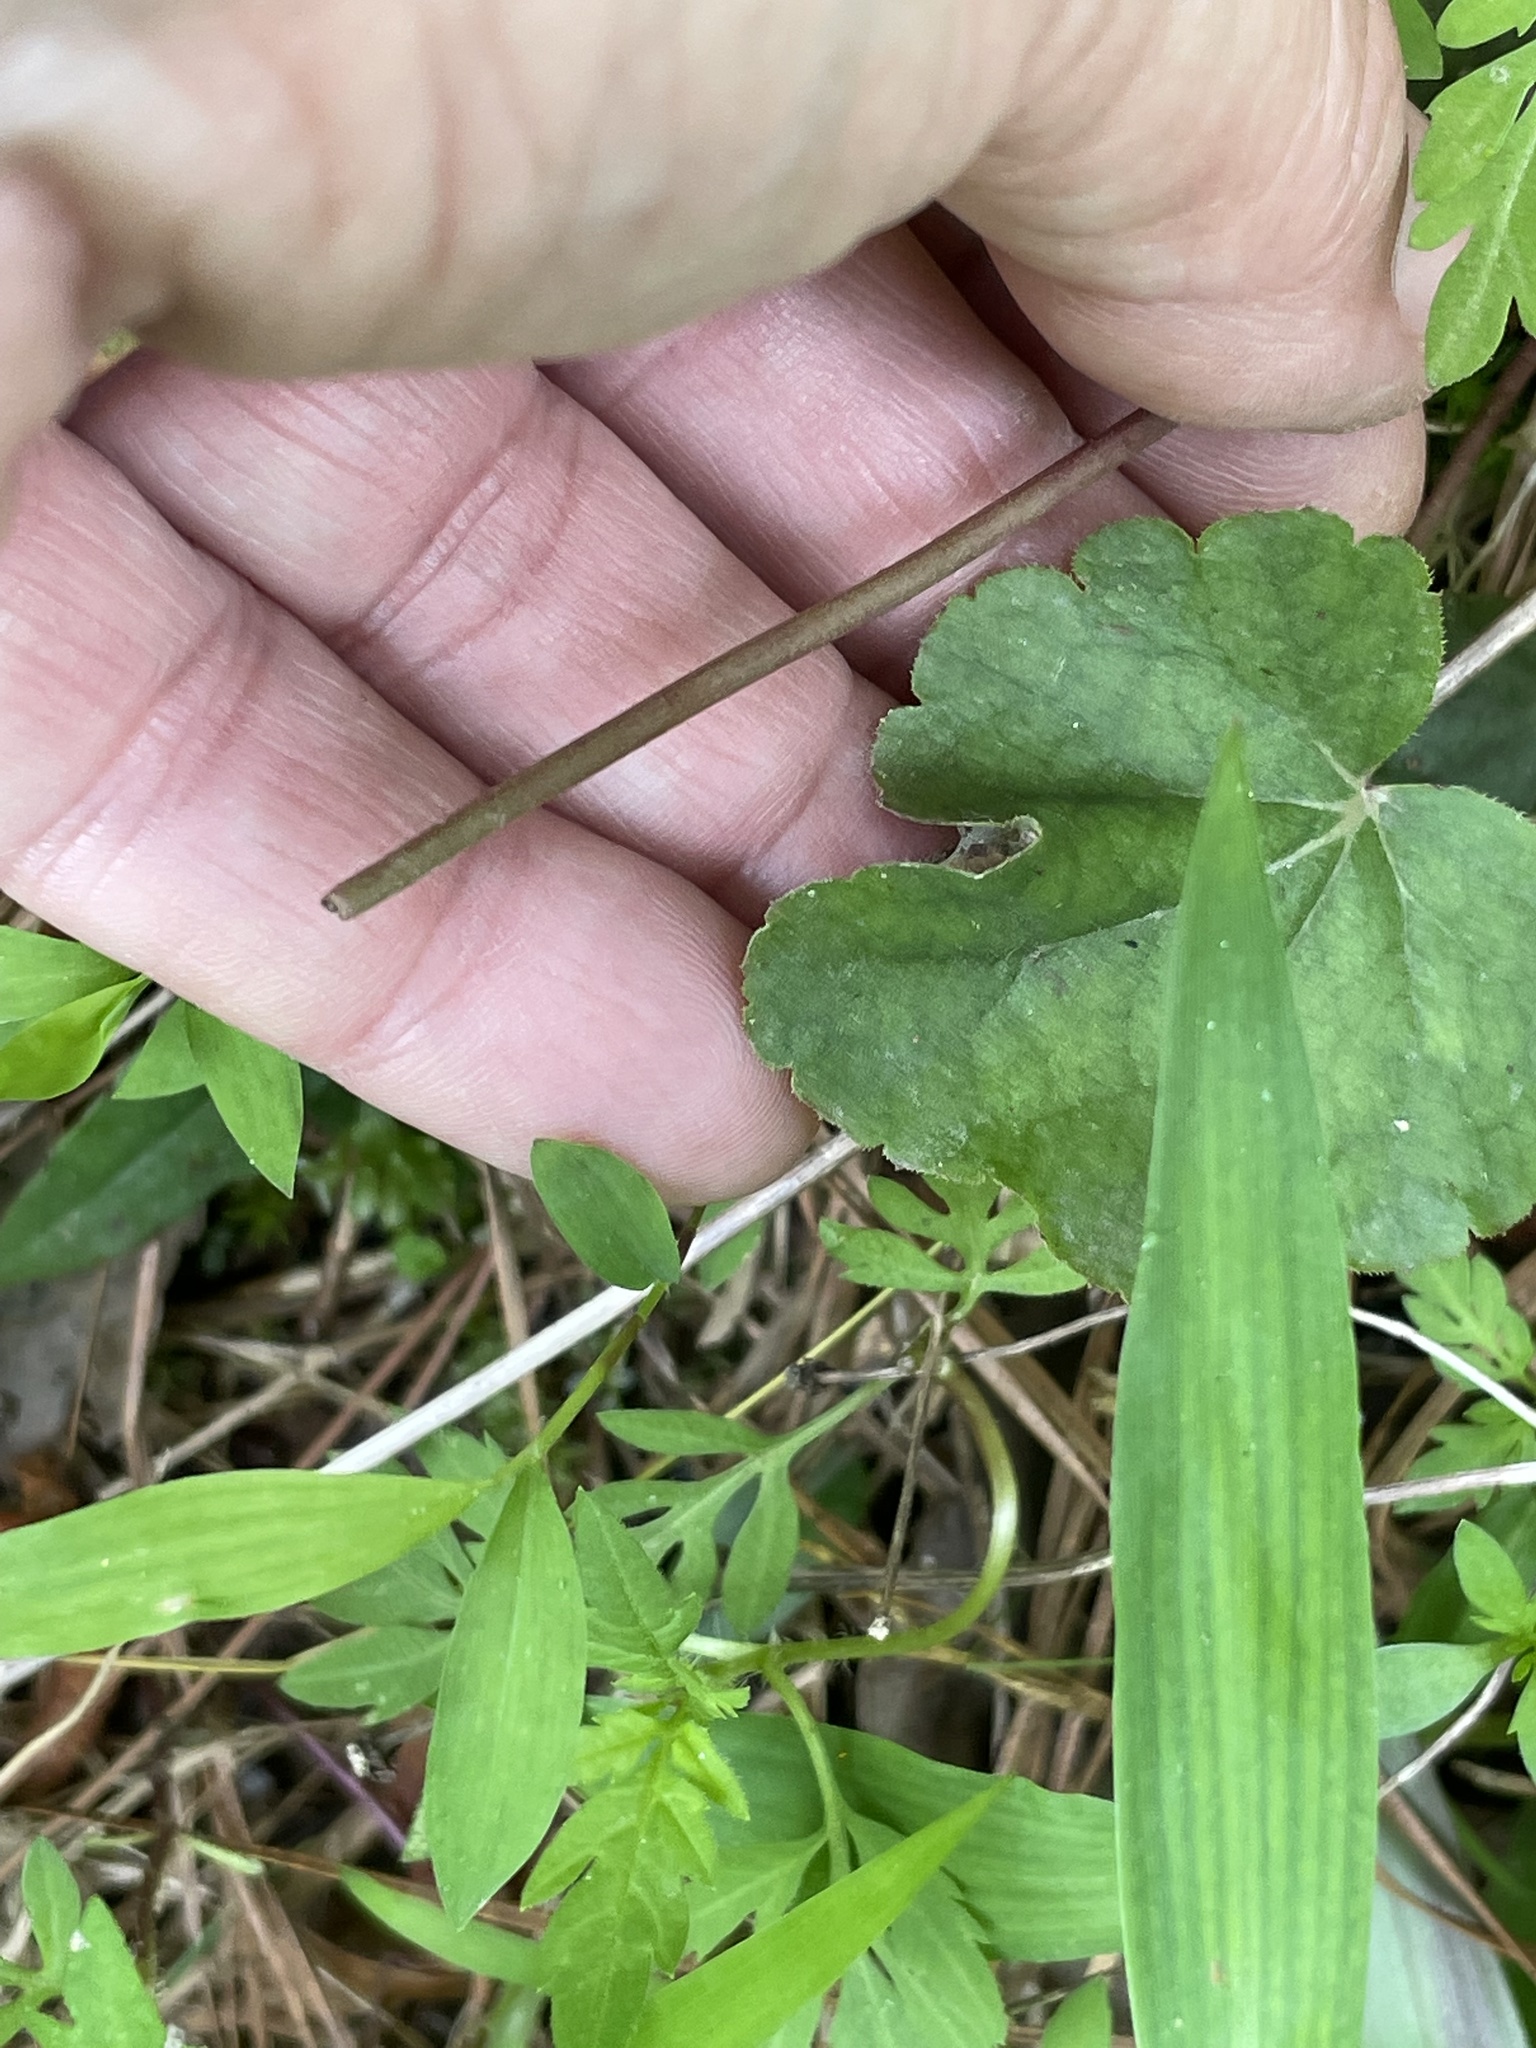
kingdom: Plantae
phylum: Tracheophyta
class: Magnoliopsida
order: Saxifragales
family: Saxifragaceae
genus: Heuchera
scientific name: Heuchera caroliniana
